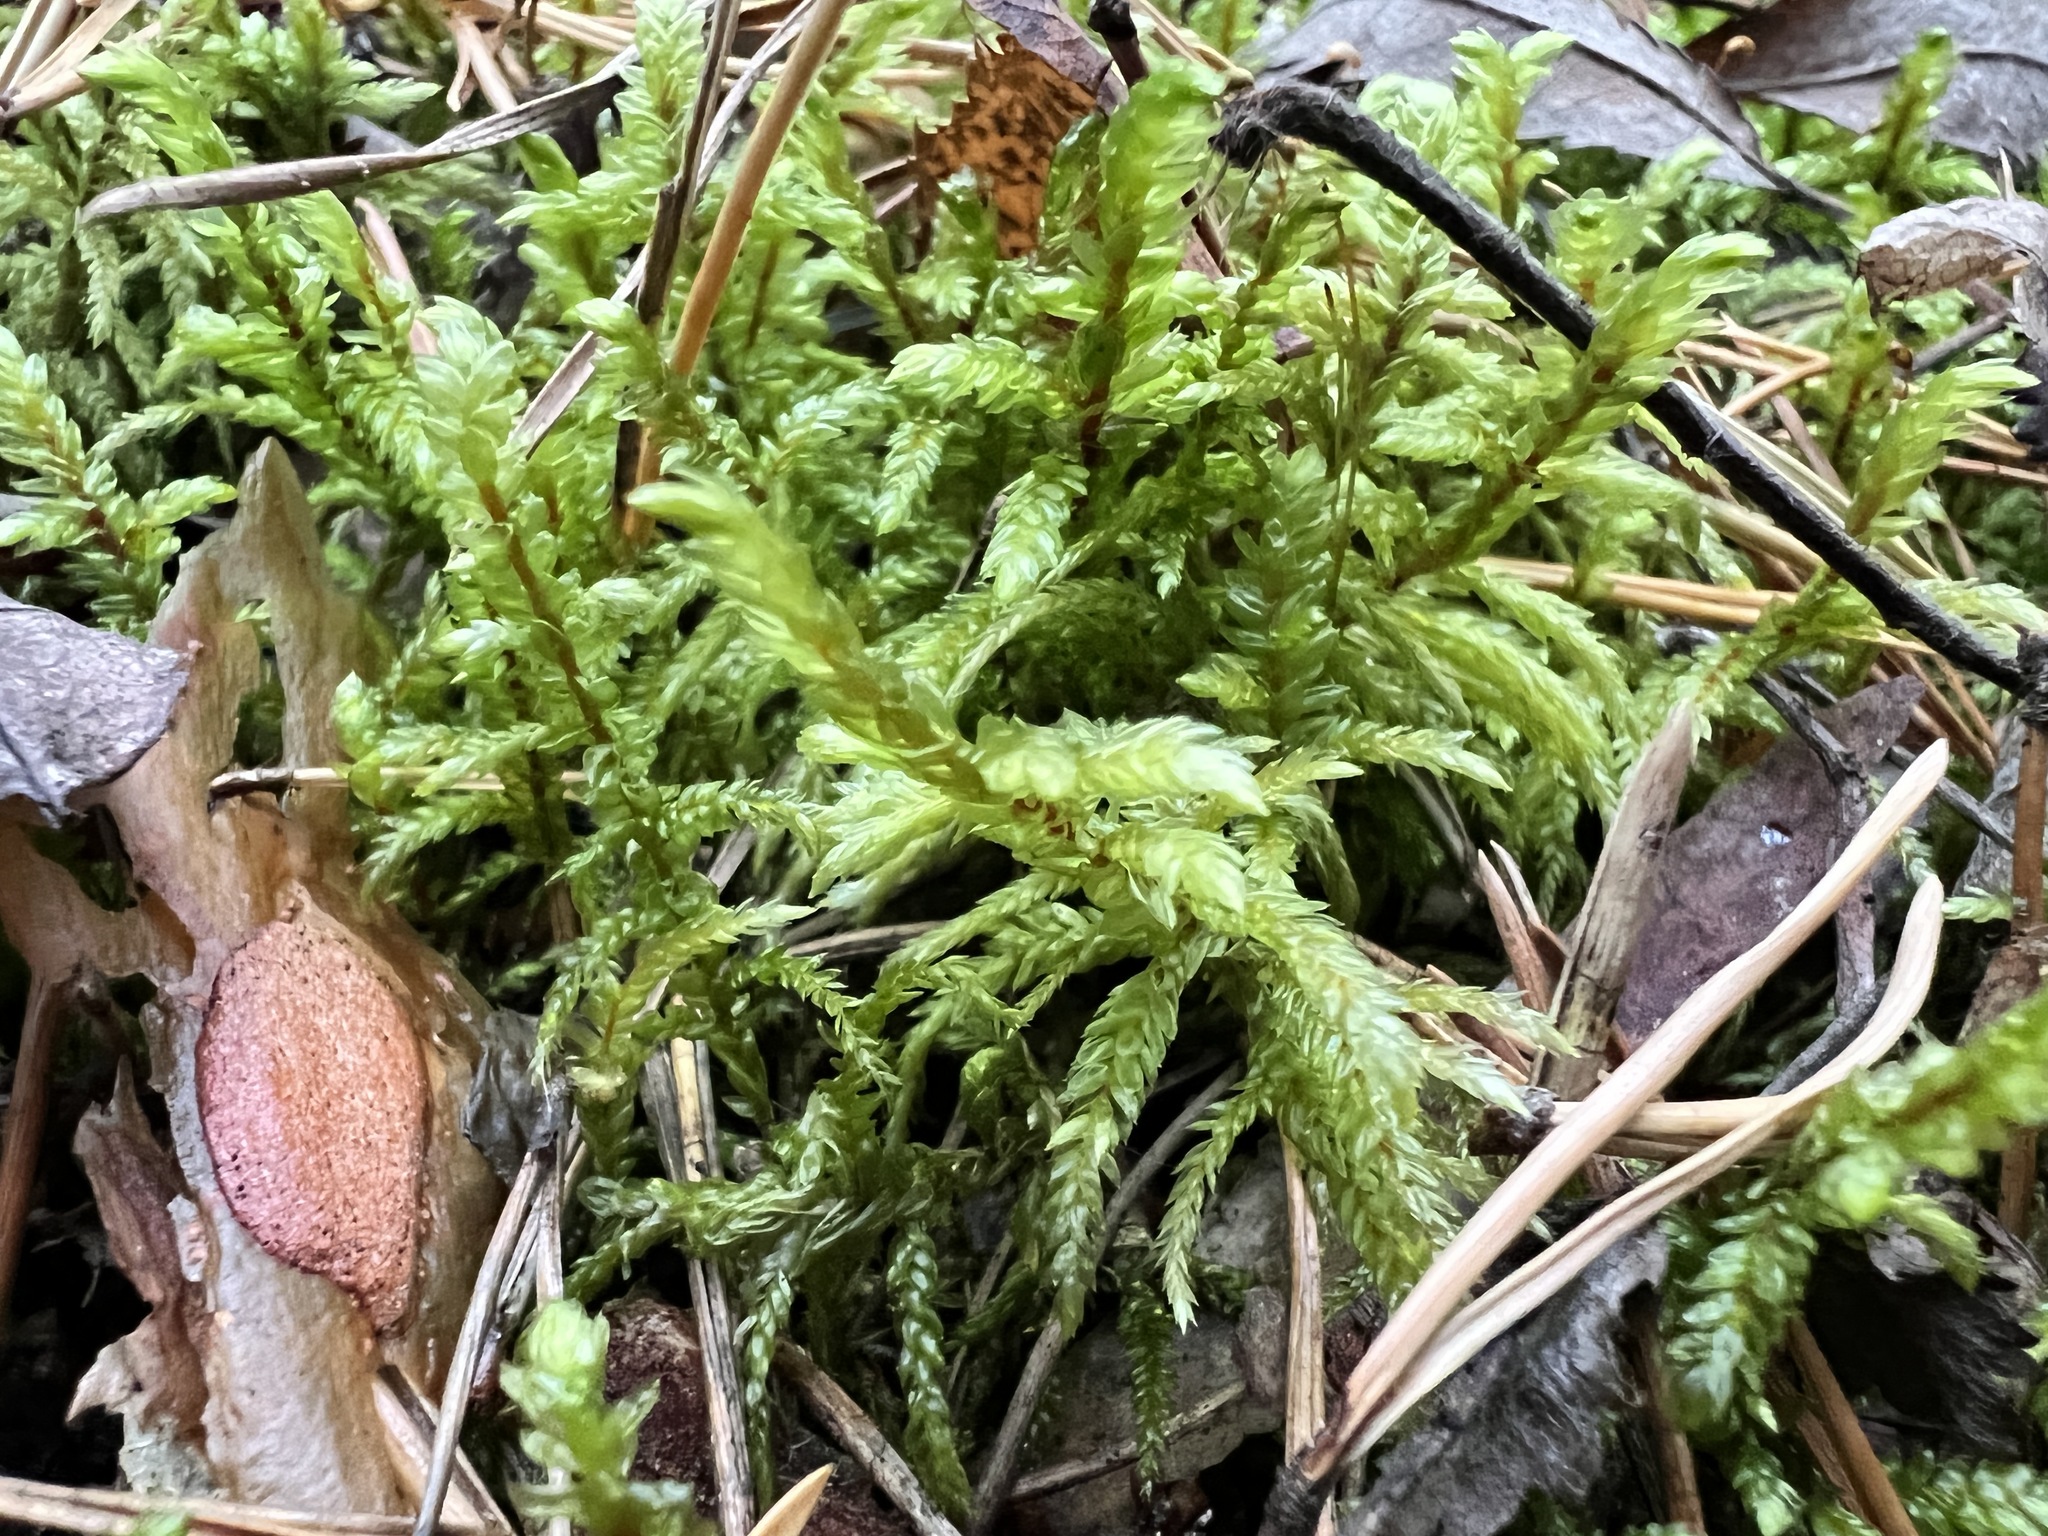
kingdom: Plantae
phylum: Bryophyta
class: Bryopsida
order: Hypnales
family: Hylocomiaceae
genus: Pleurozium
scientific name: Pleurozium schreberi
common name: Red-stemmed feather moss
